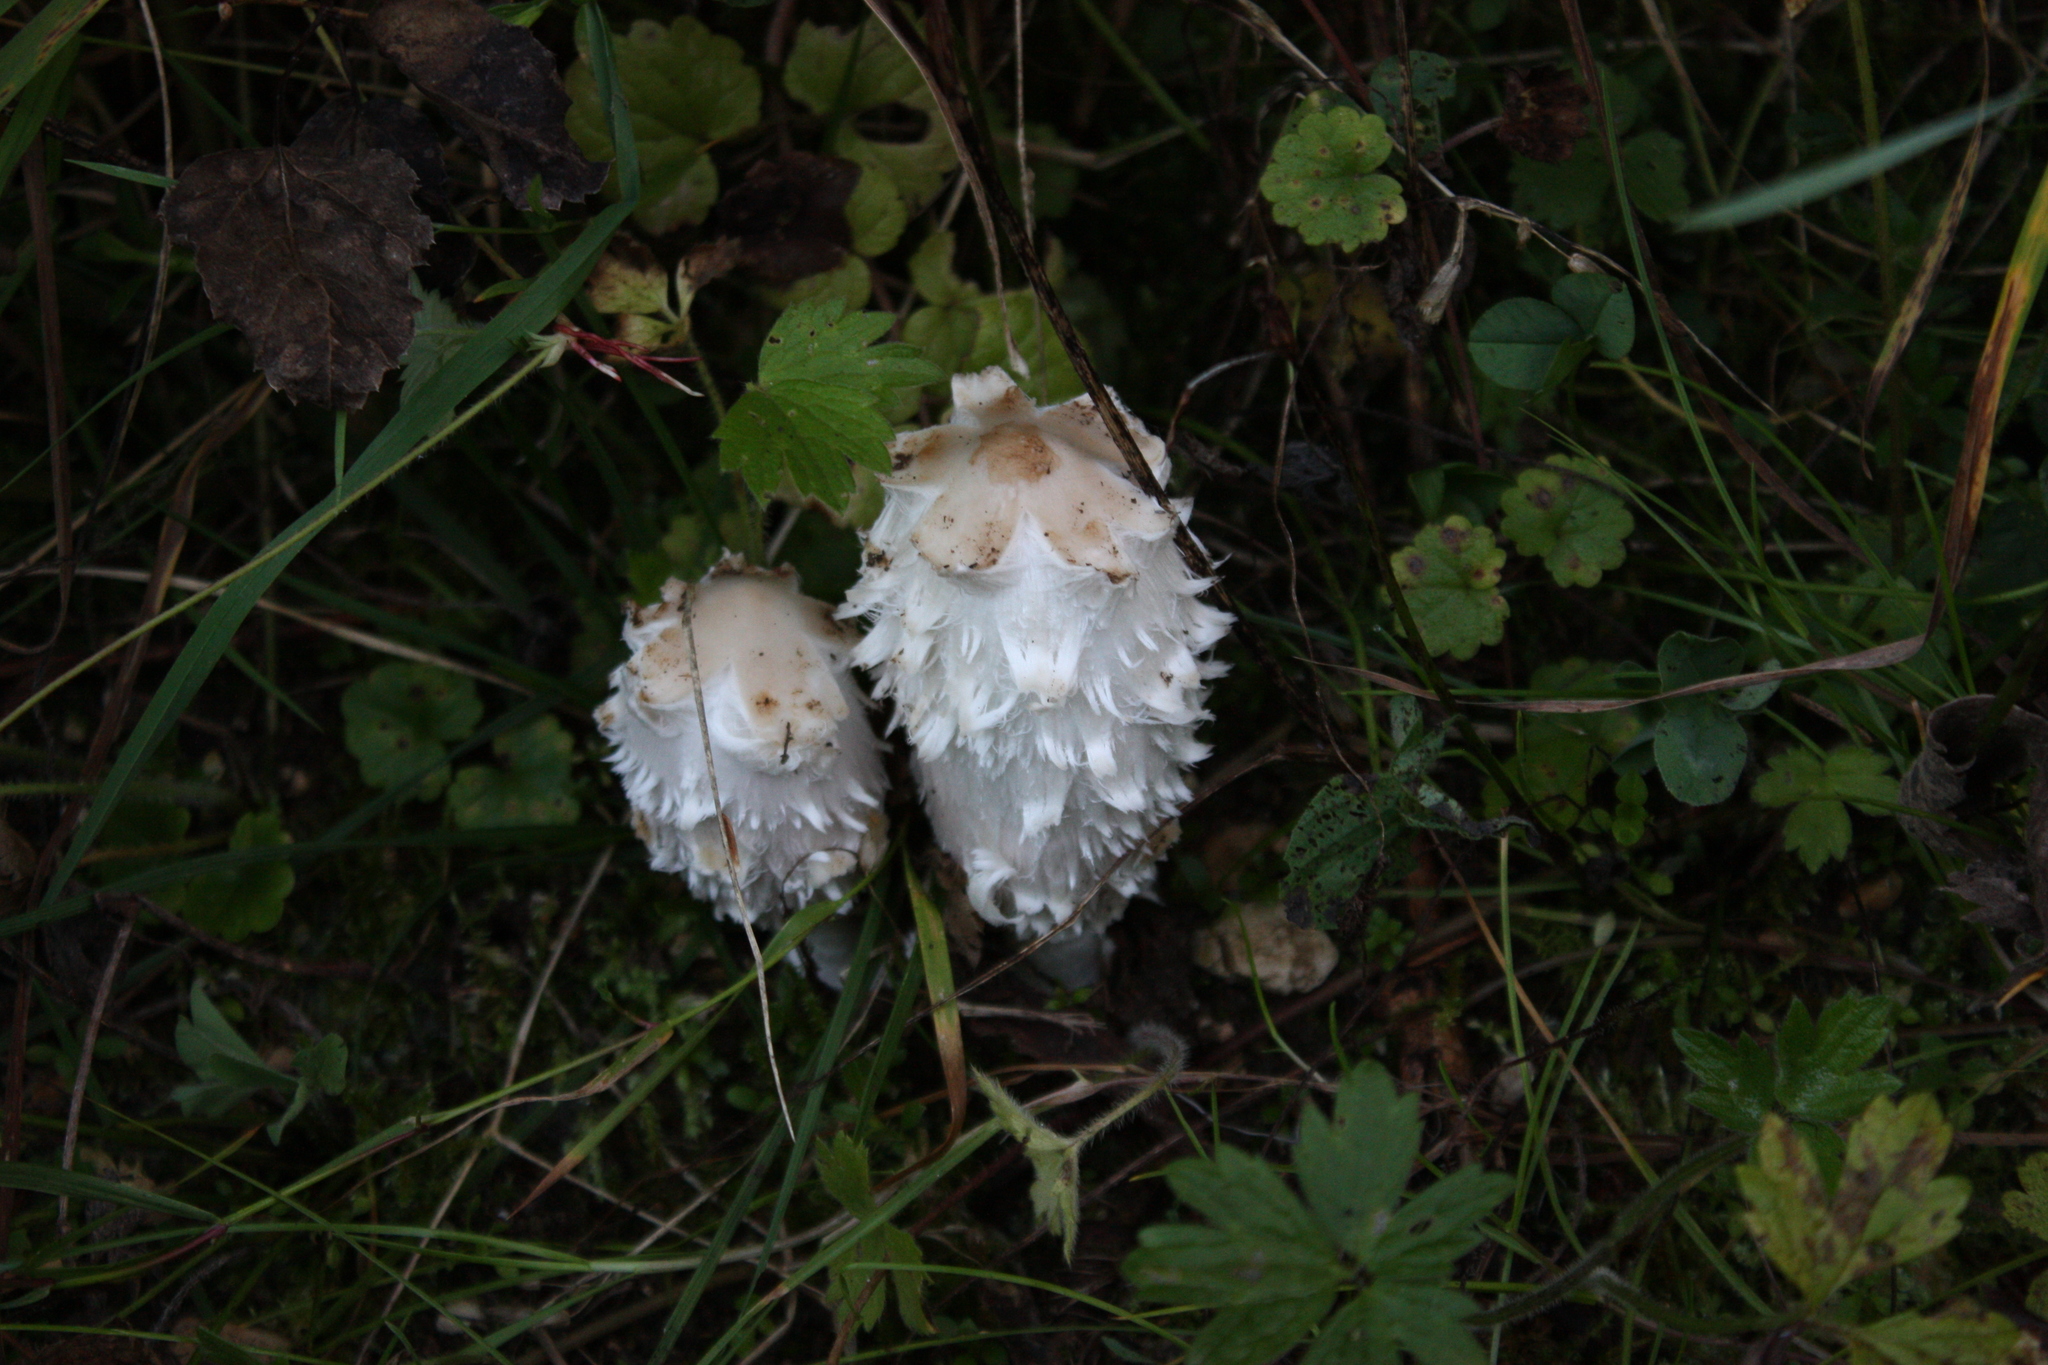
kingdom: Fungi
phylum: Basidiomycota
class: Agaricomycetes
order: Agaricales
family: Agaricaceae
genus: Coprinus
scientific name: Coprinus comatus
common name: Lawyer's wig
